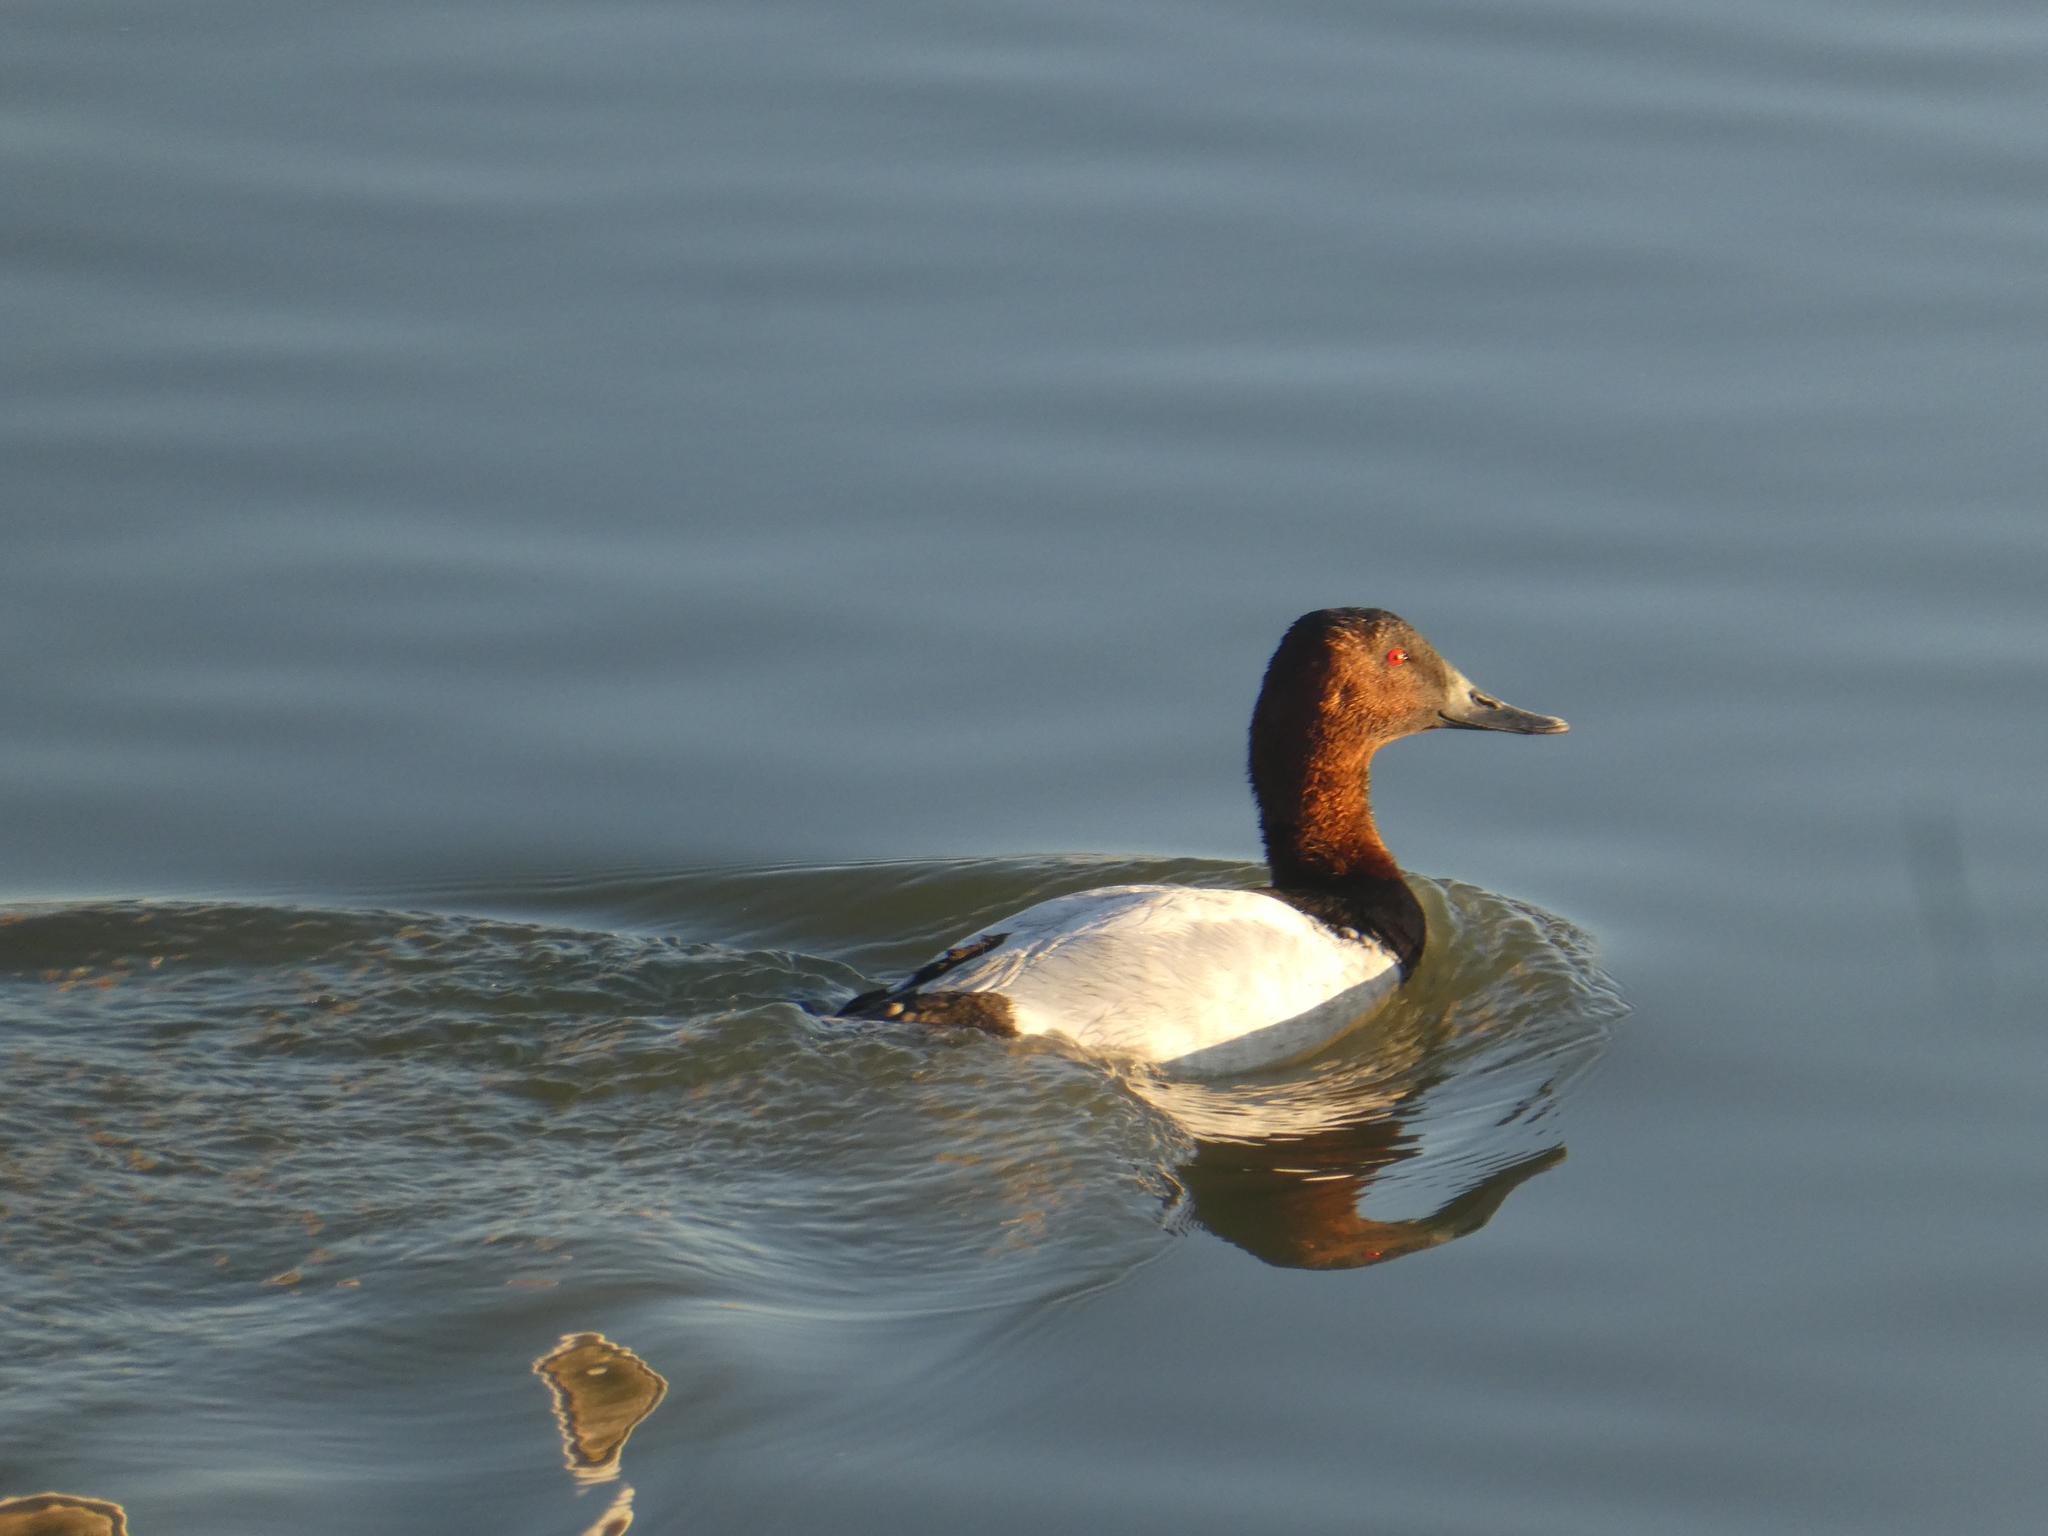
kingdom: Animalia
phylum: Chordata
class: Aves
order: Anseriformes
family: Anatidae
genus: Aythya
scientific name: Aythya valisineria
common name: Canvasback
